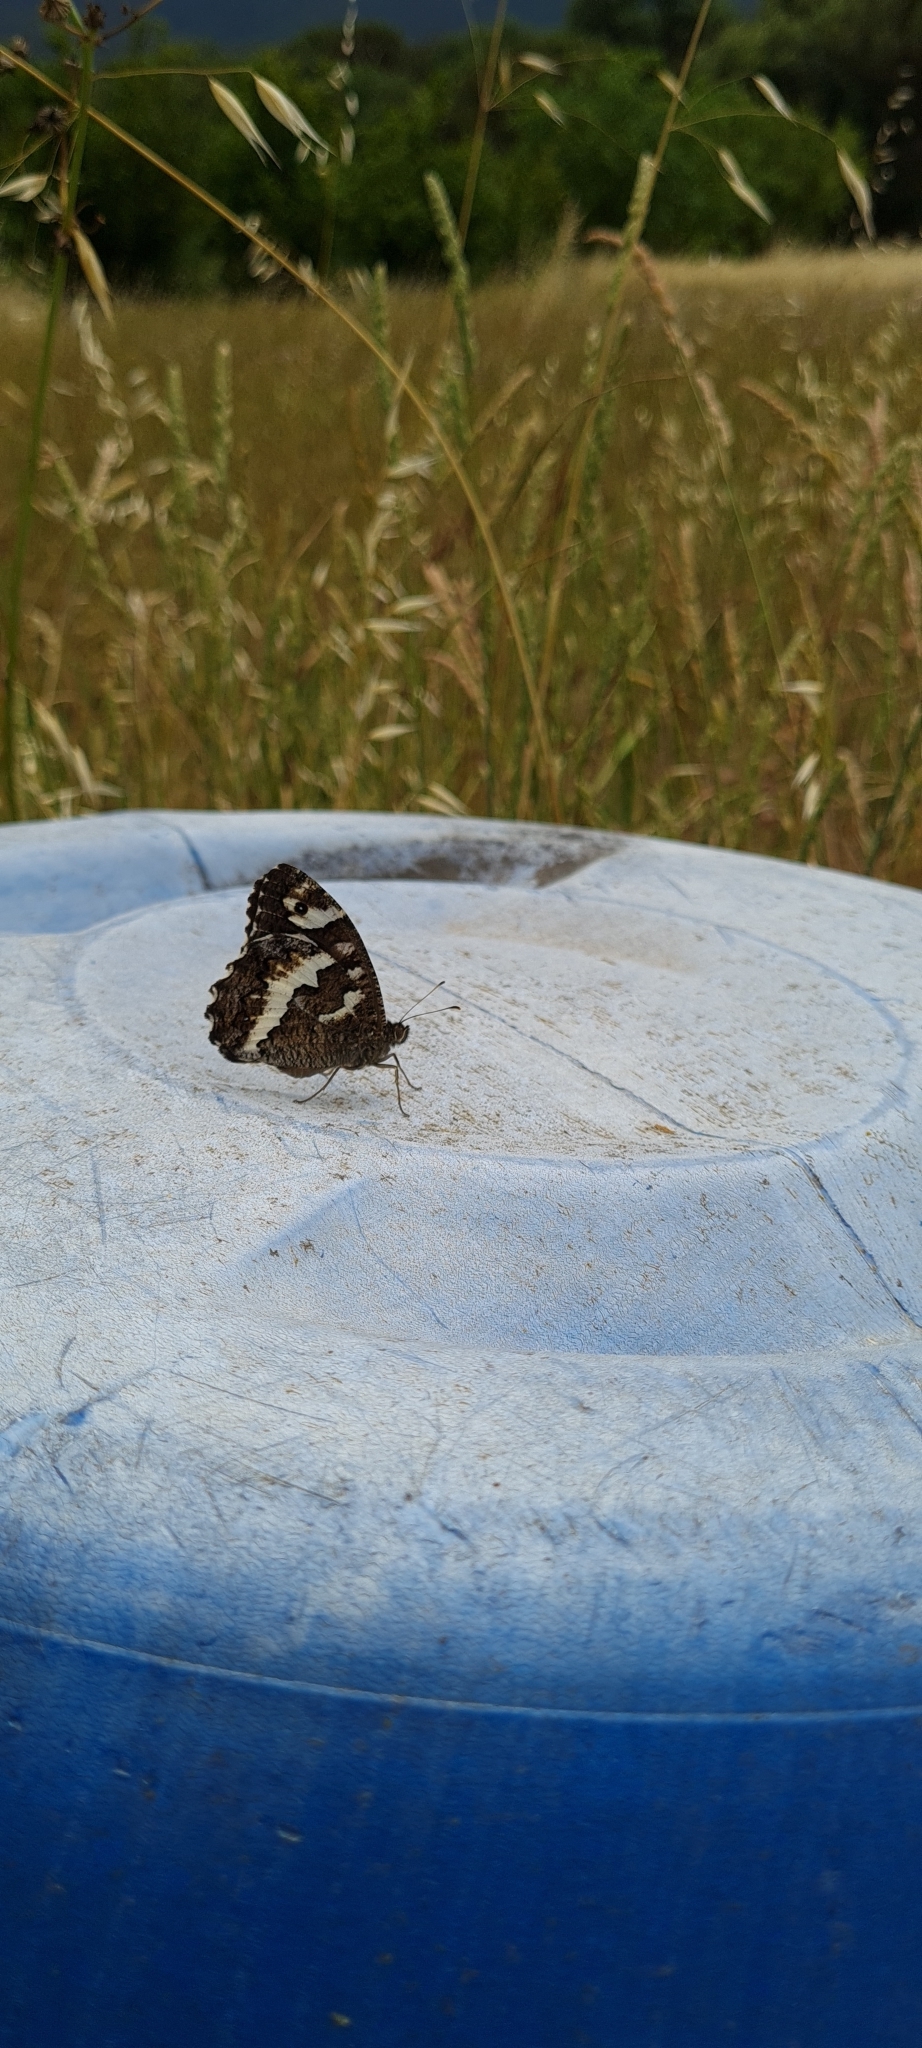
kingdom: Animalia
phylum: Arthropoda
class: Insecta
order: Lepidoptera
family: Lycaenidae
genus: Loweia
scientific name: Loweia tityrus
